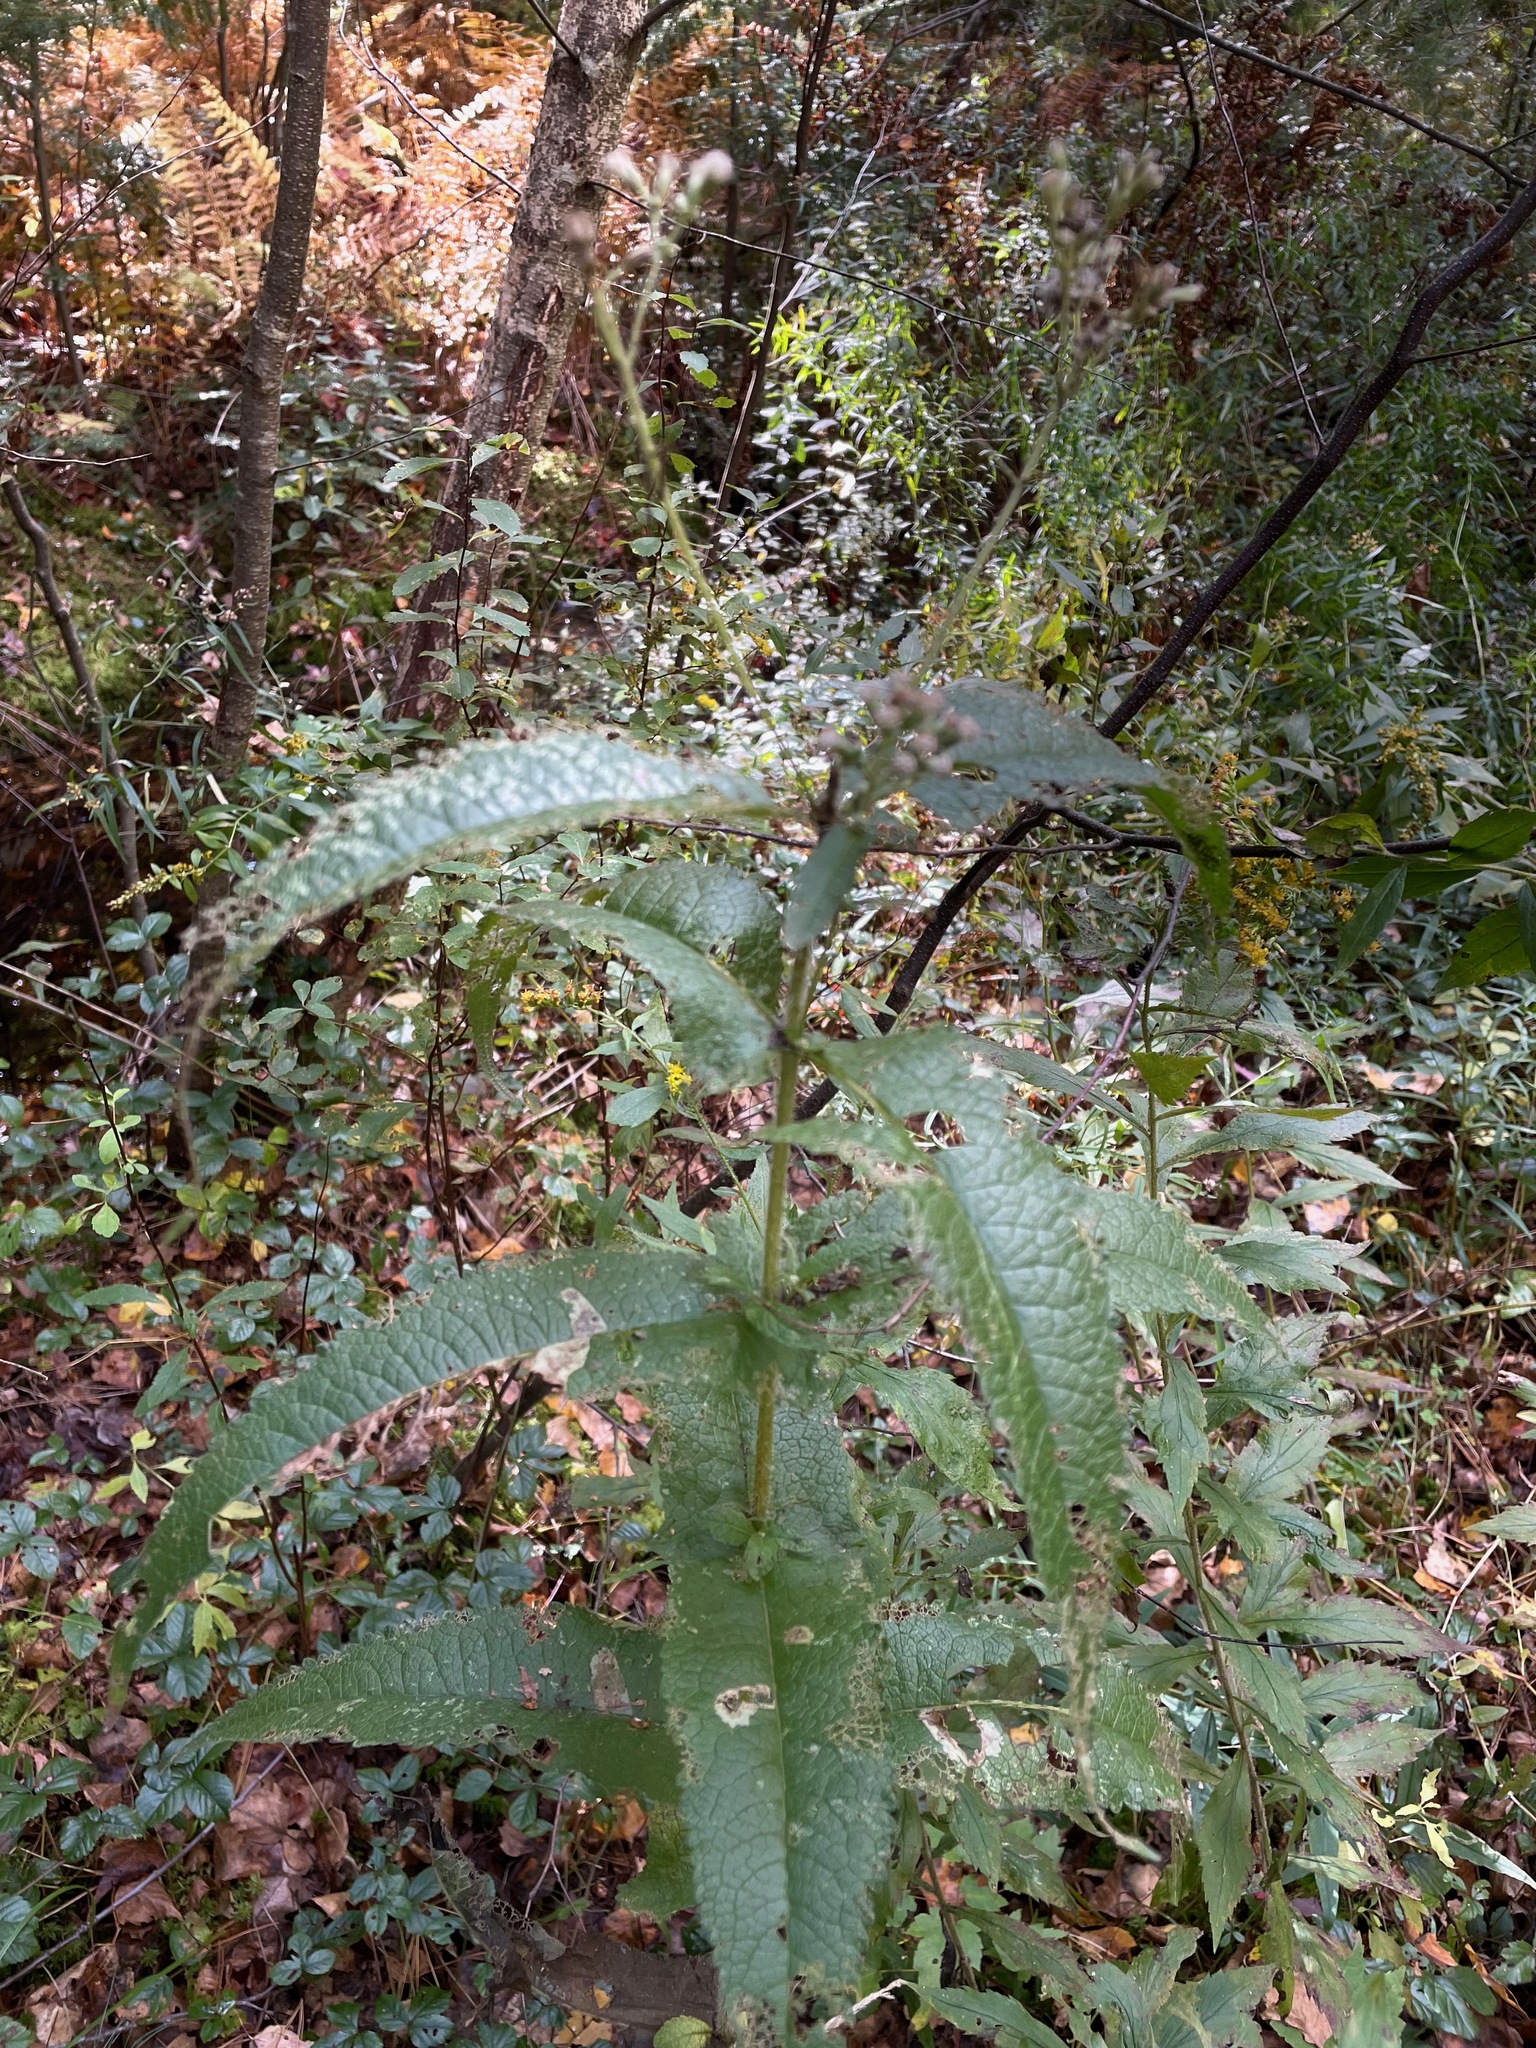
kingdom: Plantae
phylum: Tracheophyta
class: Magnoliopsida
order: Asterales
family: Asteraceae
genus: Eupatorium
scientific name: Eupatorium perfoliatum
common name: Boneset
